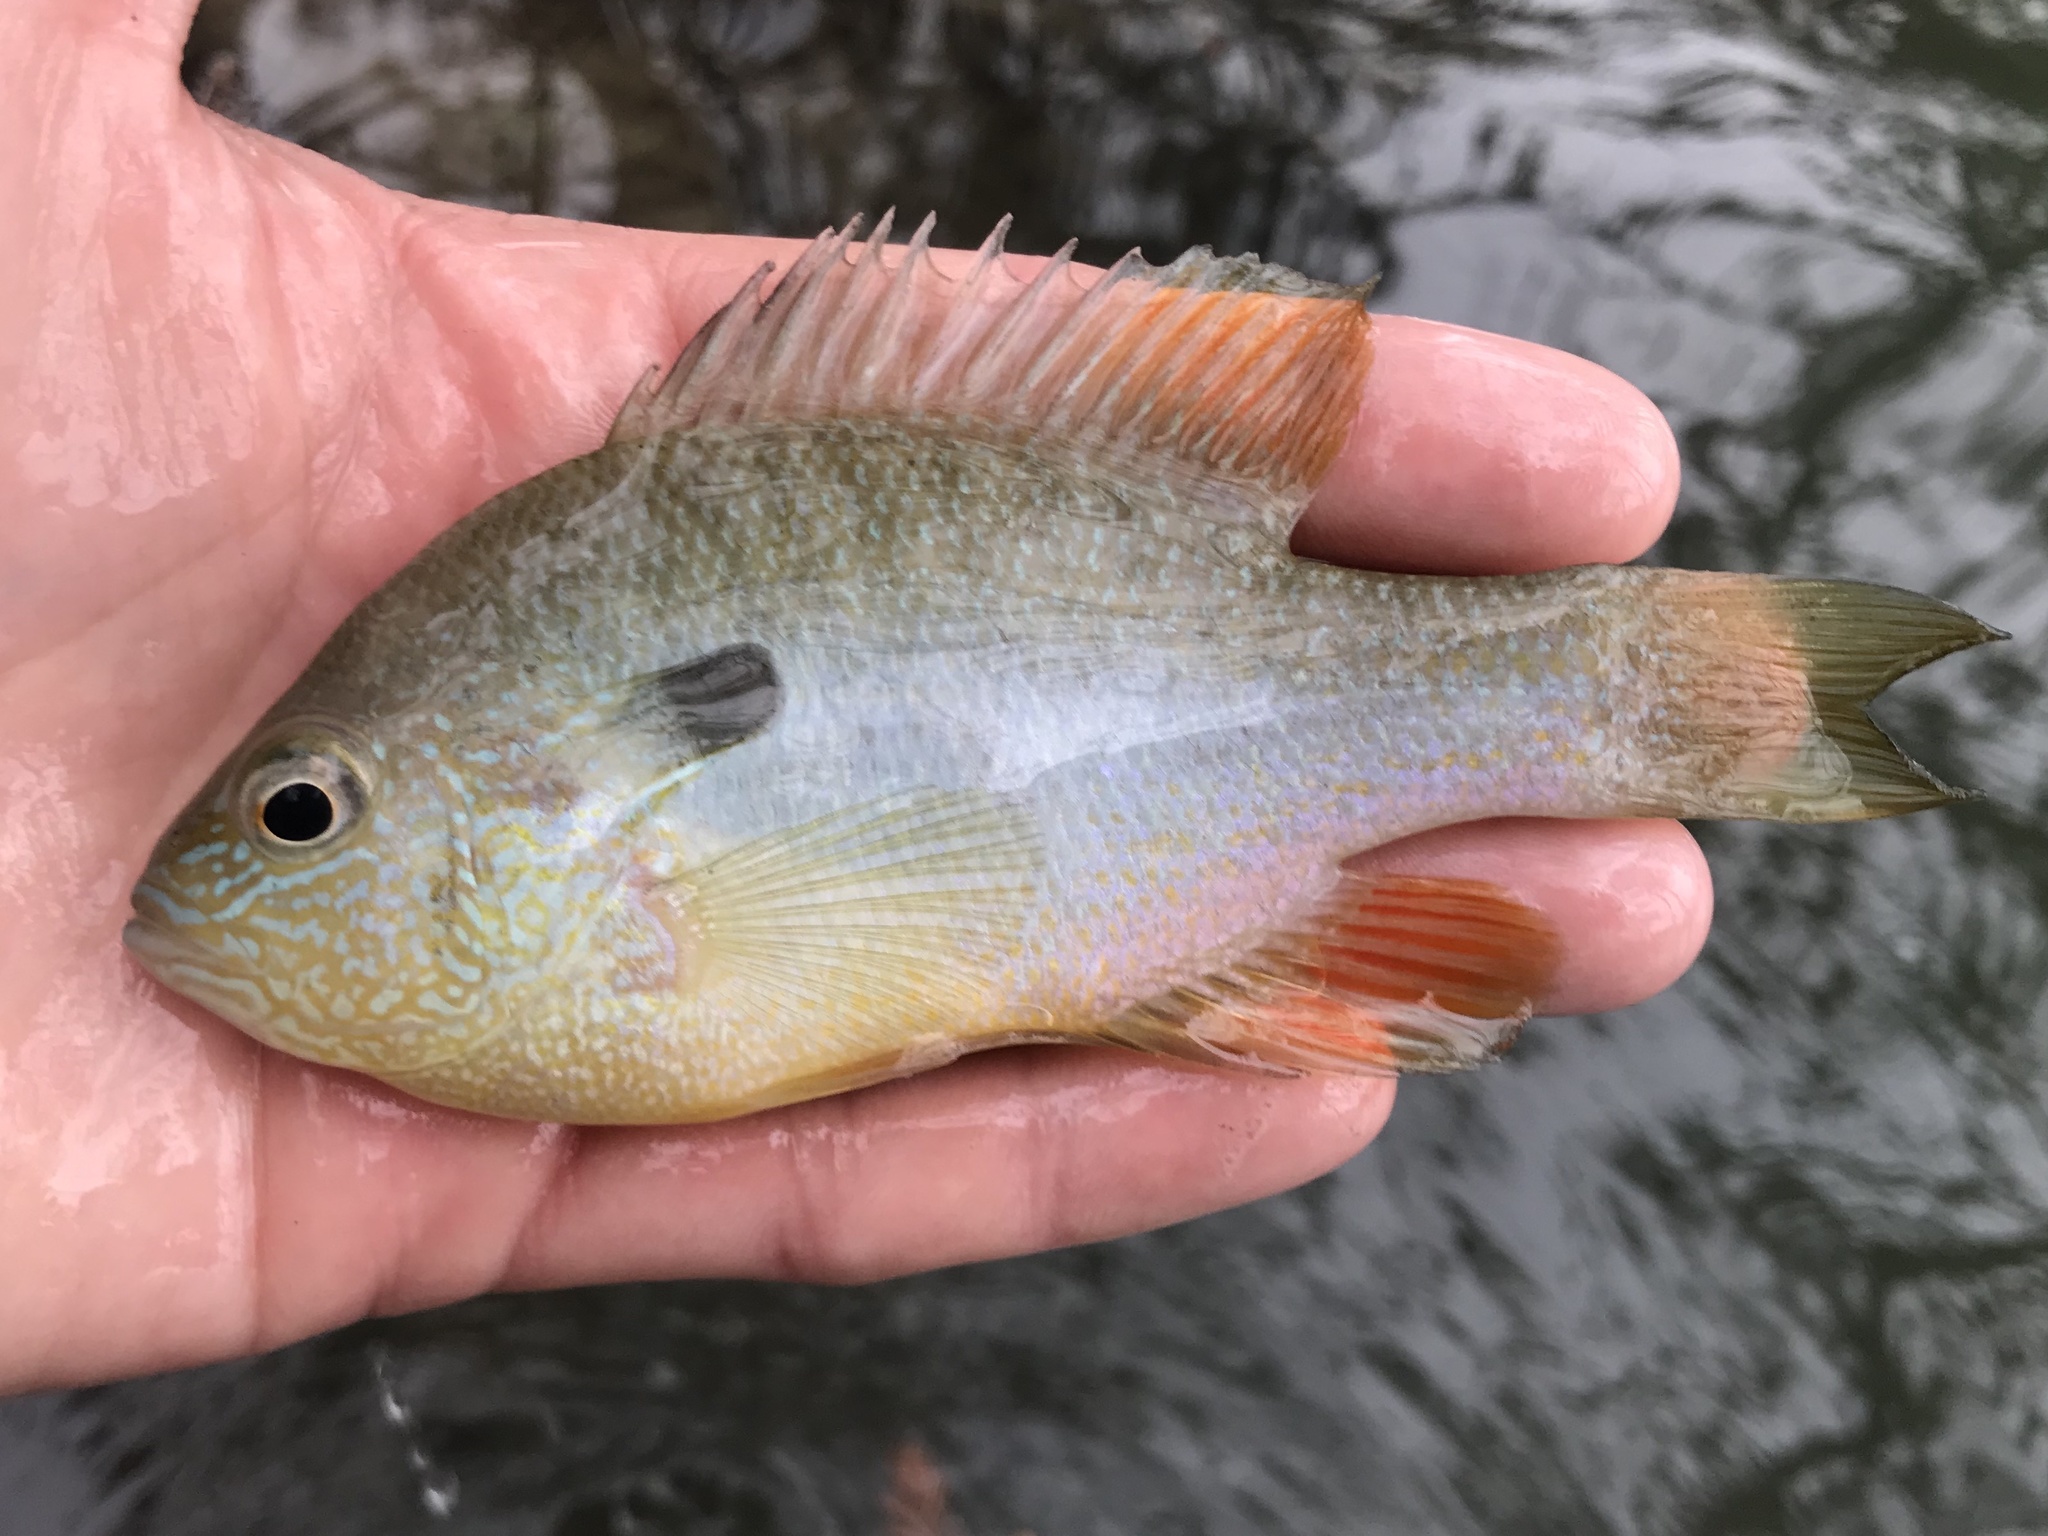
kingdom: Animalia
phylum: Chordata
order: Perciformes
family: Centrarchidae
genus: Lepomis
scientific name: Lepomis megalotis
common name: Longear sunfish
